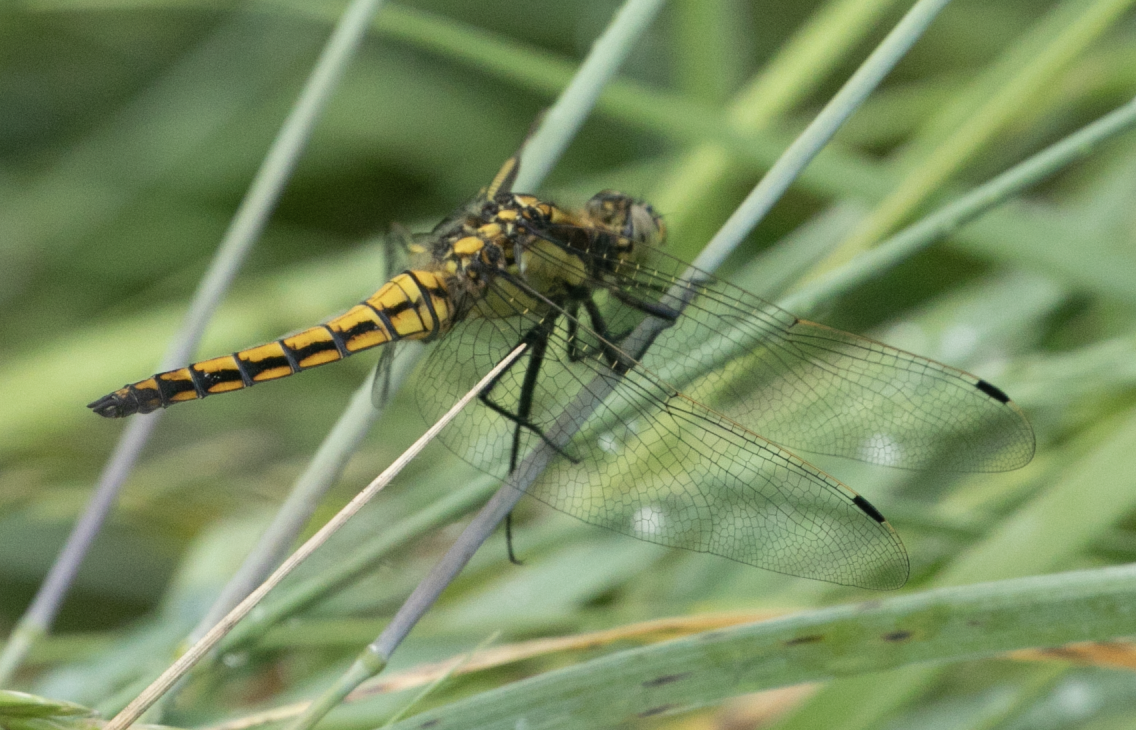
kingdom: Animalia
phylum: Arthropoda
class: Insecta
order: Odonata
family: Libellulidae
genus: Orthetrum
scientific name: Orthetrum cancellatum
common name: Black-tailed skimmer
